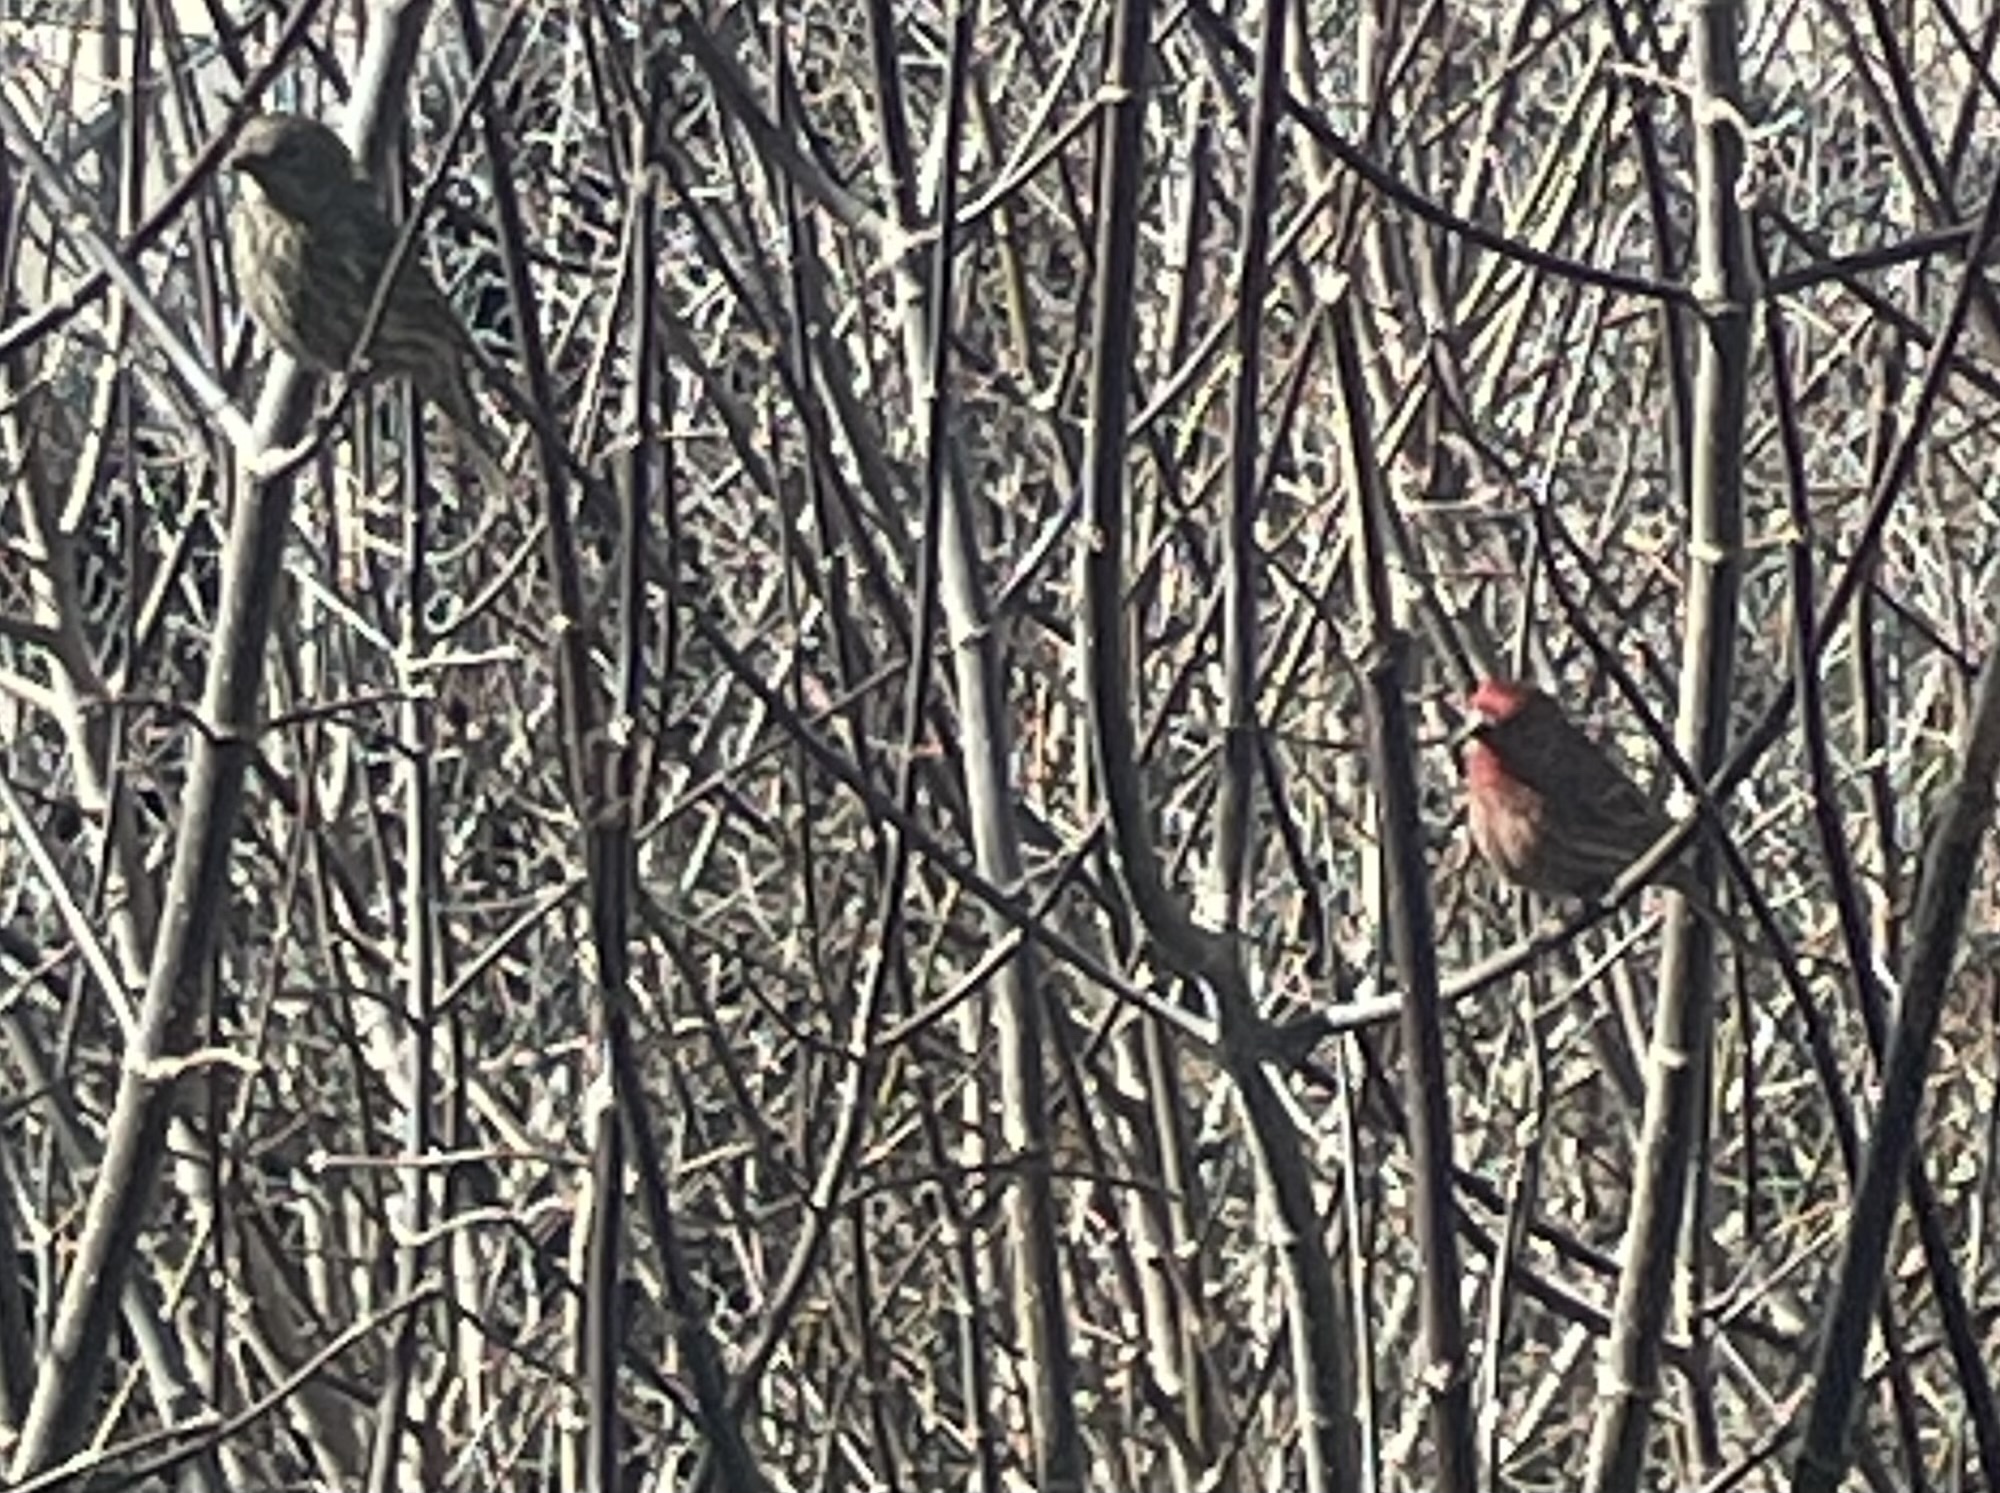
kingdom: Animalia
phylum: Chordata
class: Aves
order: Passeriformes
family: Fringillidae
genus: Haemorhous
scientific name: Haemorhous mexicanus
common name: House finch
